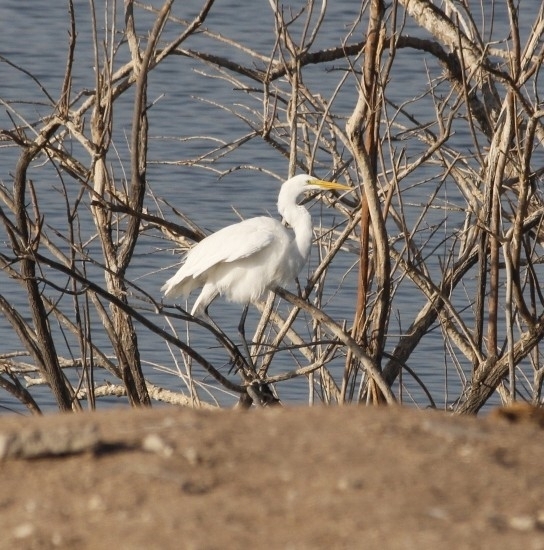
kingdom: Animalia
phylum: Chordata
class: Aves
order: Pelecaniformes
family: Ardeidae
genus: Ardea
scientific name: Ardea alba
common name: Great egret
